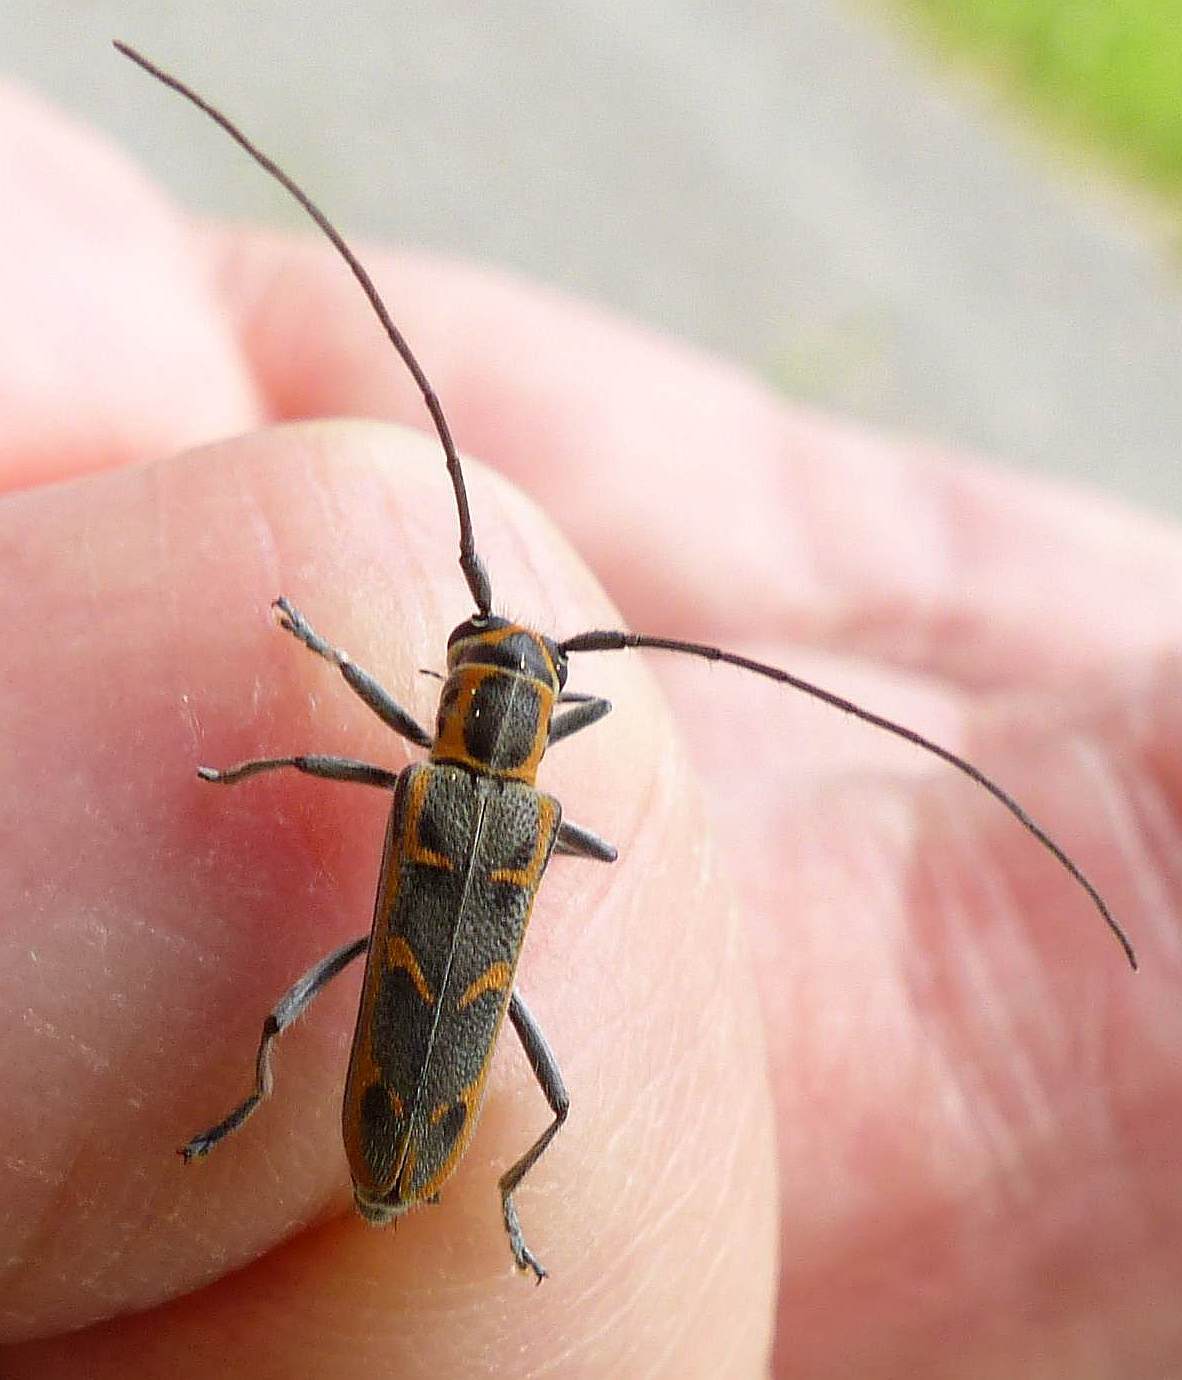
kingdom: Animalia
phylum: Arthropoda
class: Insecta
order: Coleoptera
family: Cerambycidae
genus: Saperda
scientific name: Saperda tridentata
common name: Elm borer
